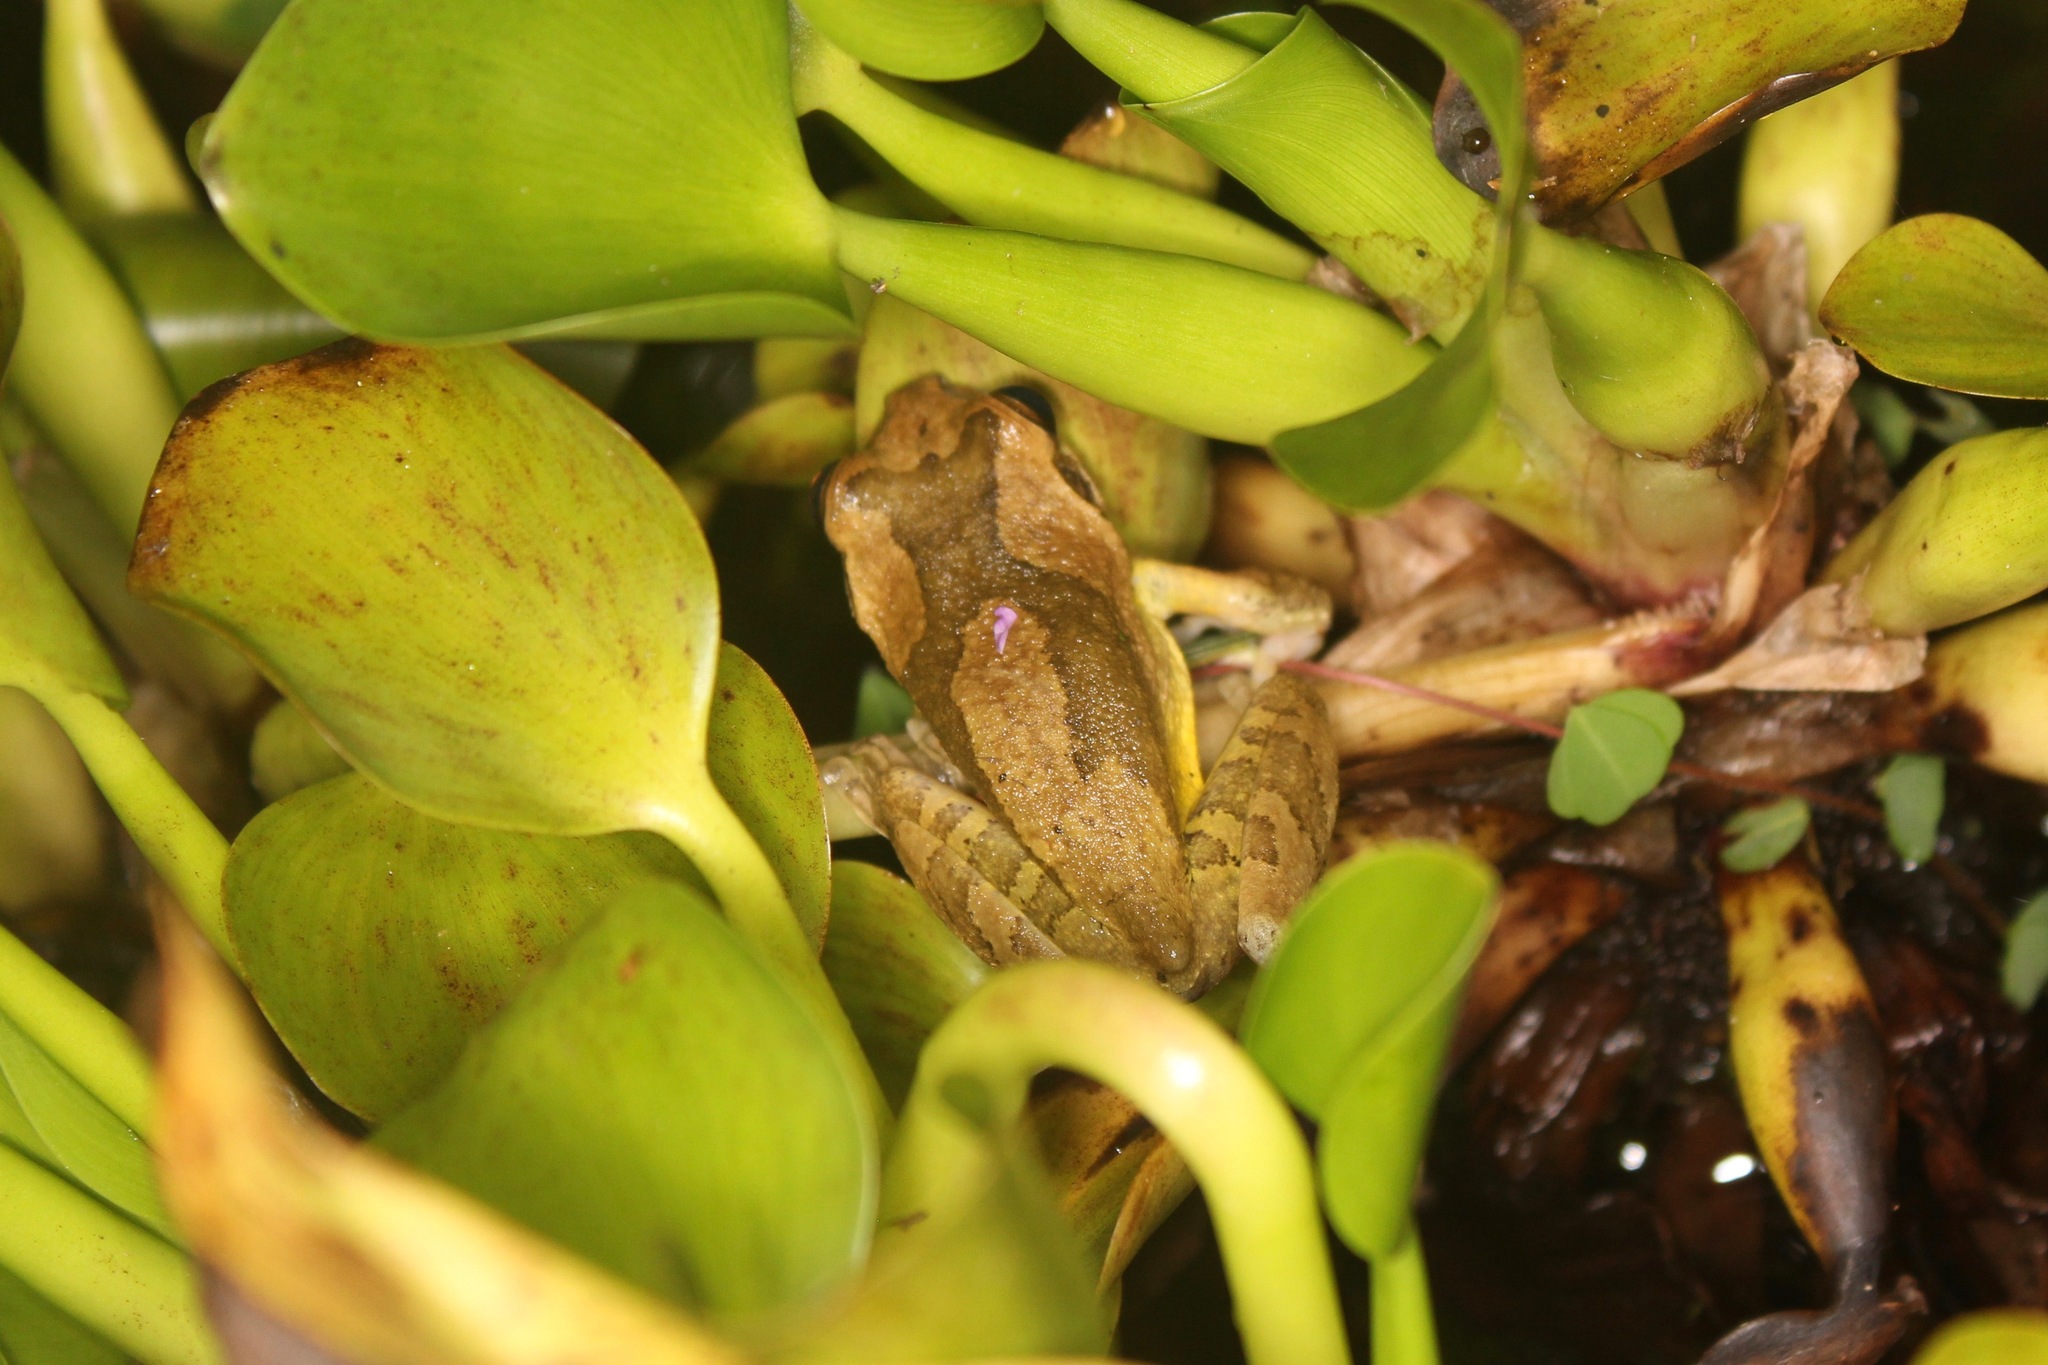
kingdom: Animalia
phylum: Chordata
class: Amphibia
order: Anura
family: Hylidae
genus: Smilisca
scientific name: Smilisca baudinii
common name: Mexican smilisca
